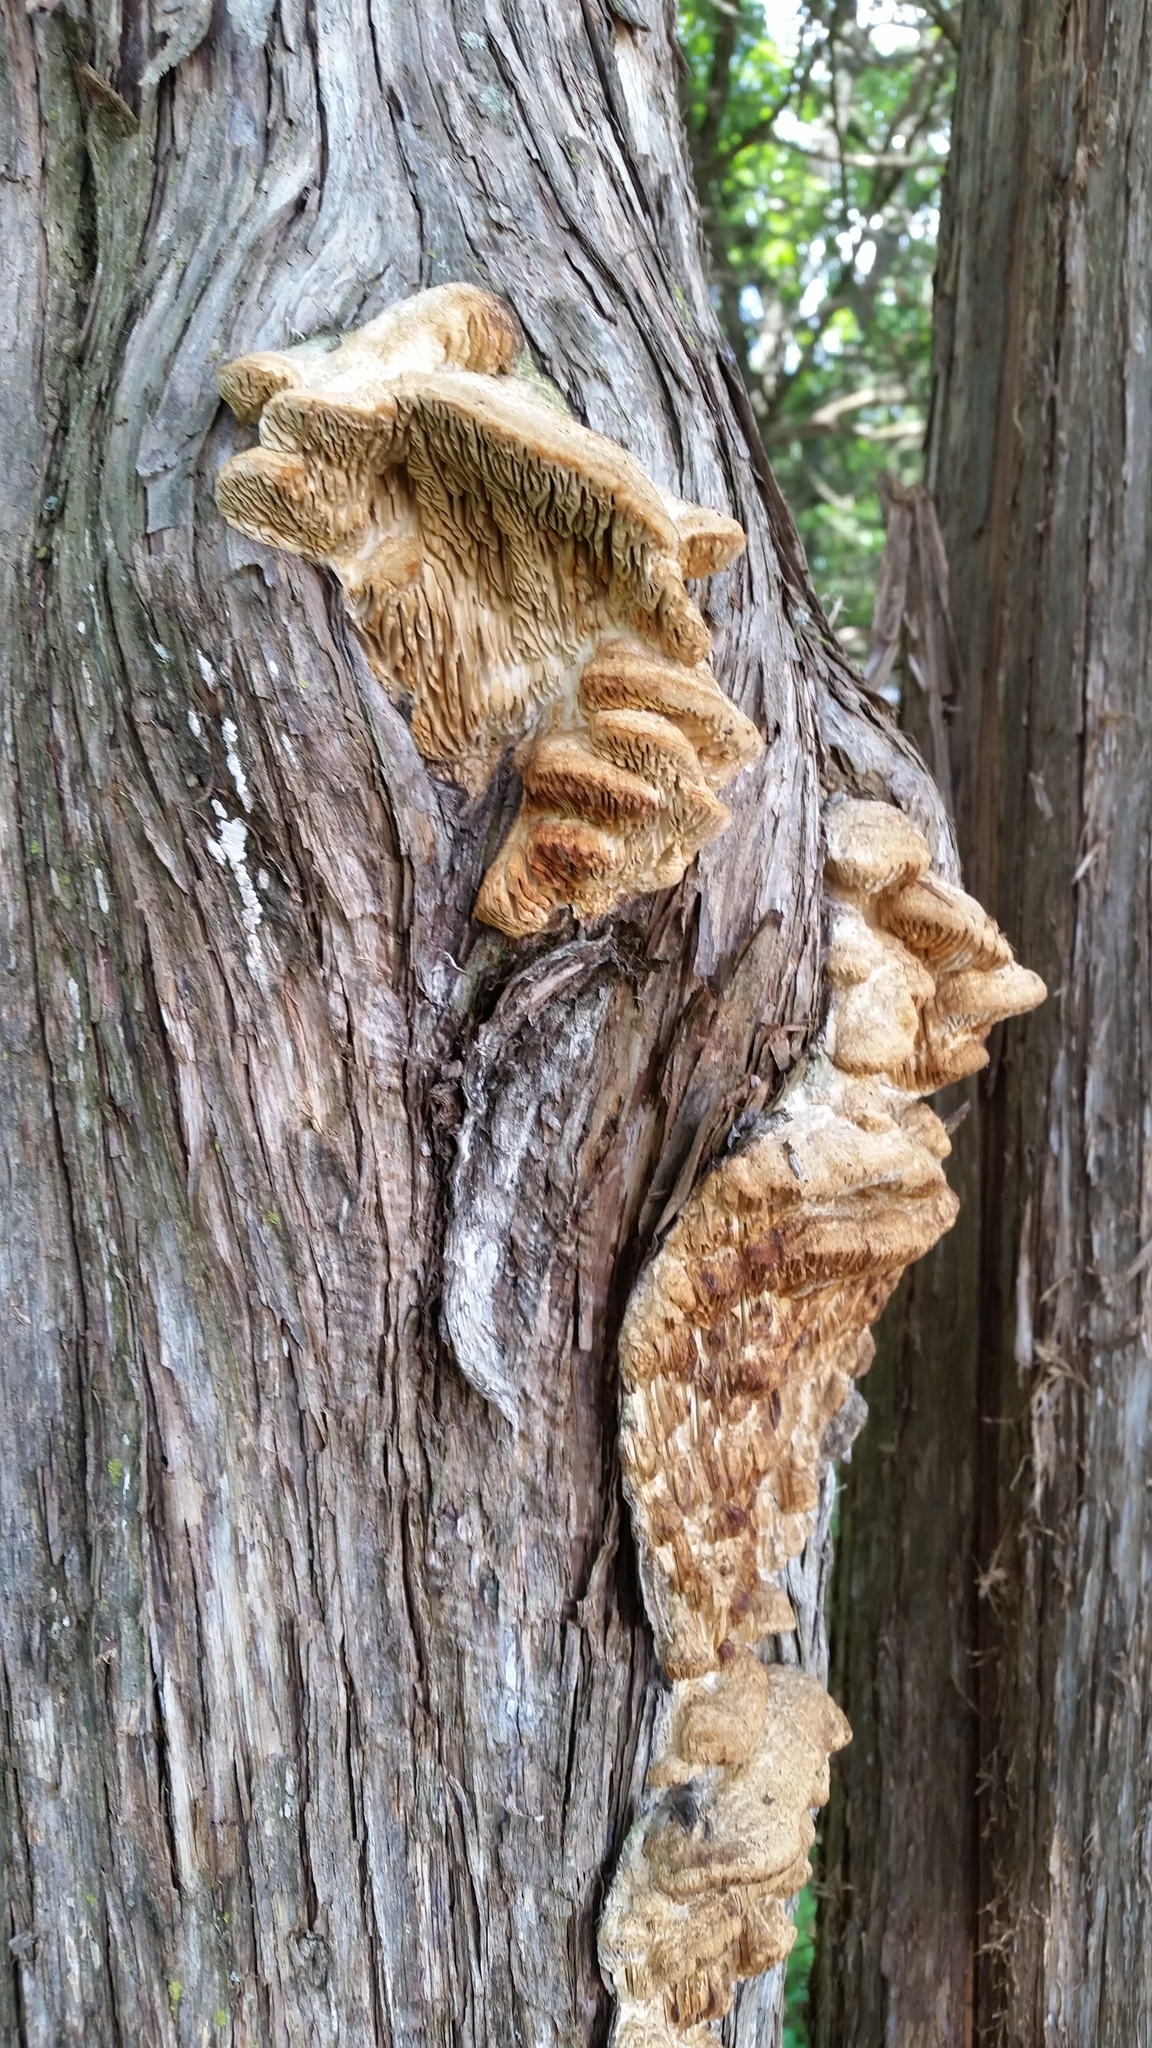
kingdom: Fungi
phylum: Basidiomycota
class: Agaricomycetes
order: Polyporales
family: Fomitopsidaceae
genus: Fomitopsis
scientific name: Fomitopsis
